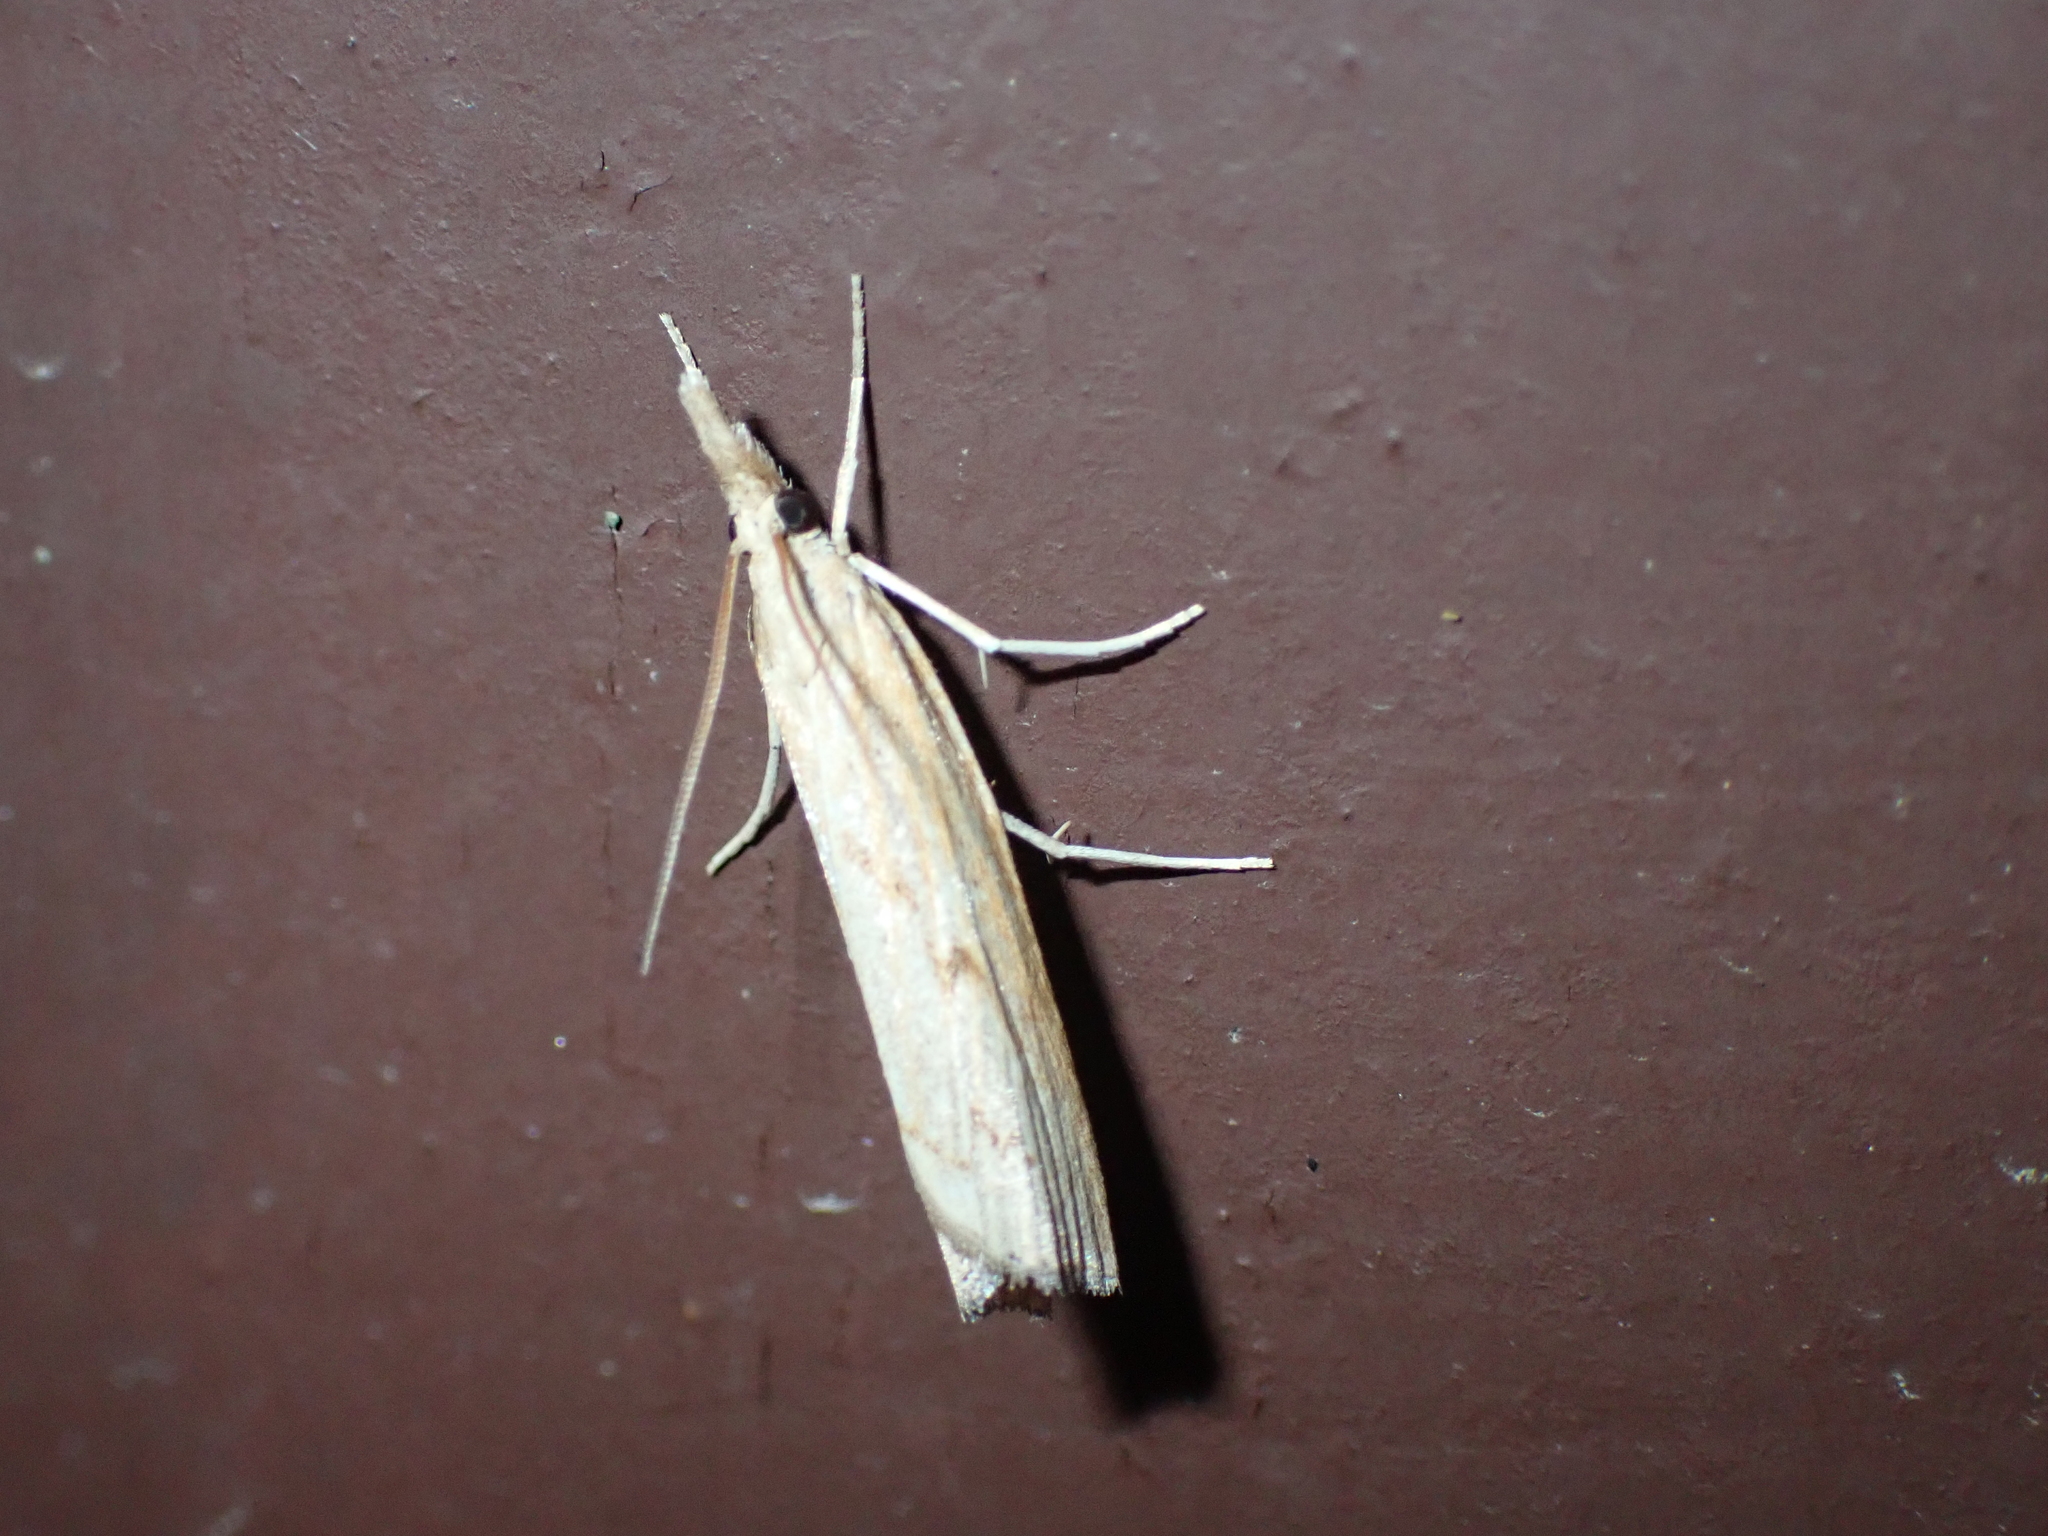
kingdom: Animalia
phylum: Arthropoda
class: Insecta
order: Lepidoptera
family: Crambidae
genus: Pediasia
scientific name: Pediasia contaminella
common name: Waste grass-veneer
